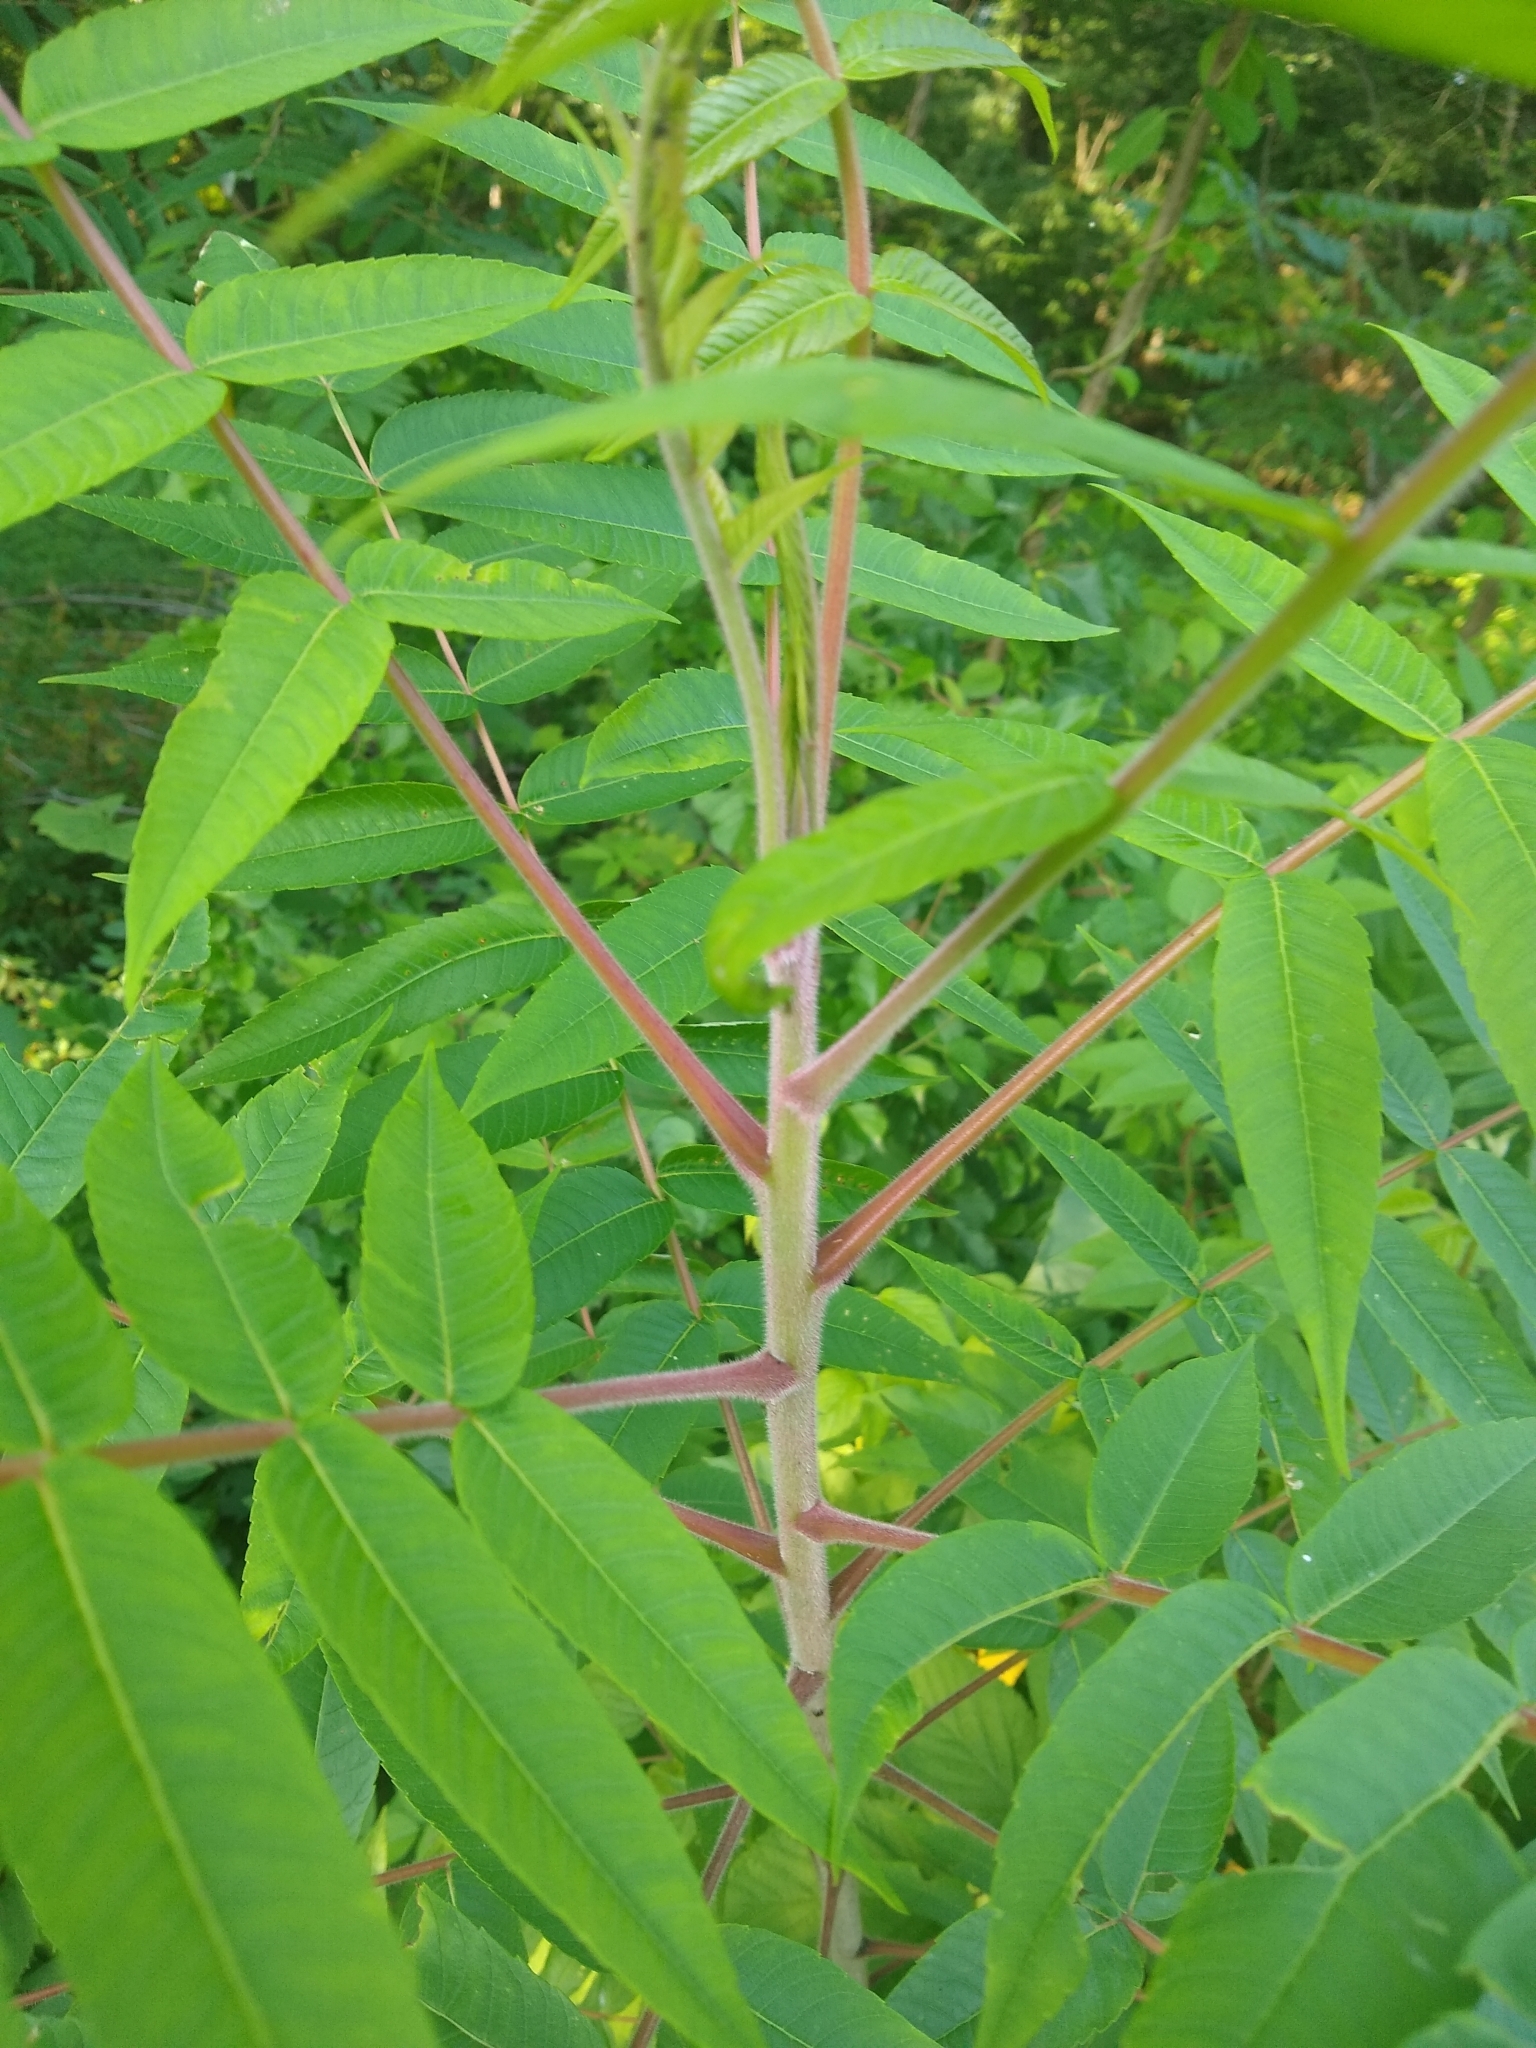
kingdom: Plantae
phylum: Tracheophyta
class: Magnoliopsida
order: Sapindales
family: Anacardiaceae
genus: Rhus
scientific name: Rhus typhina
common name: Staghorn sumac
